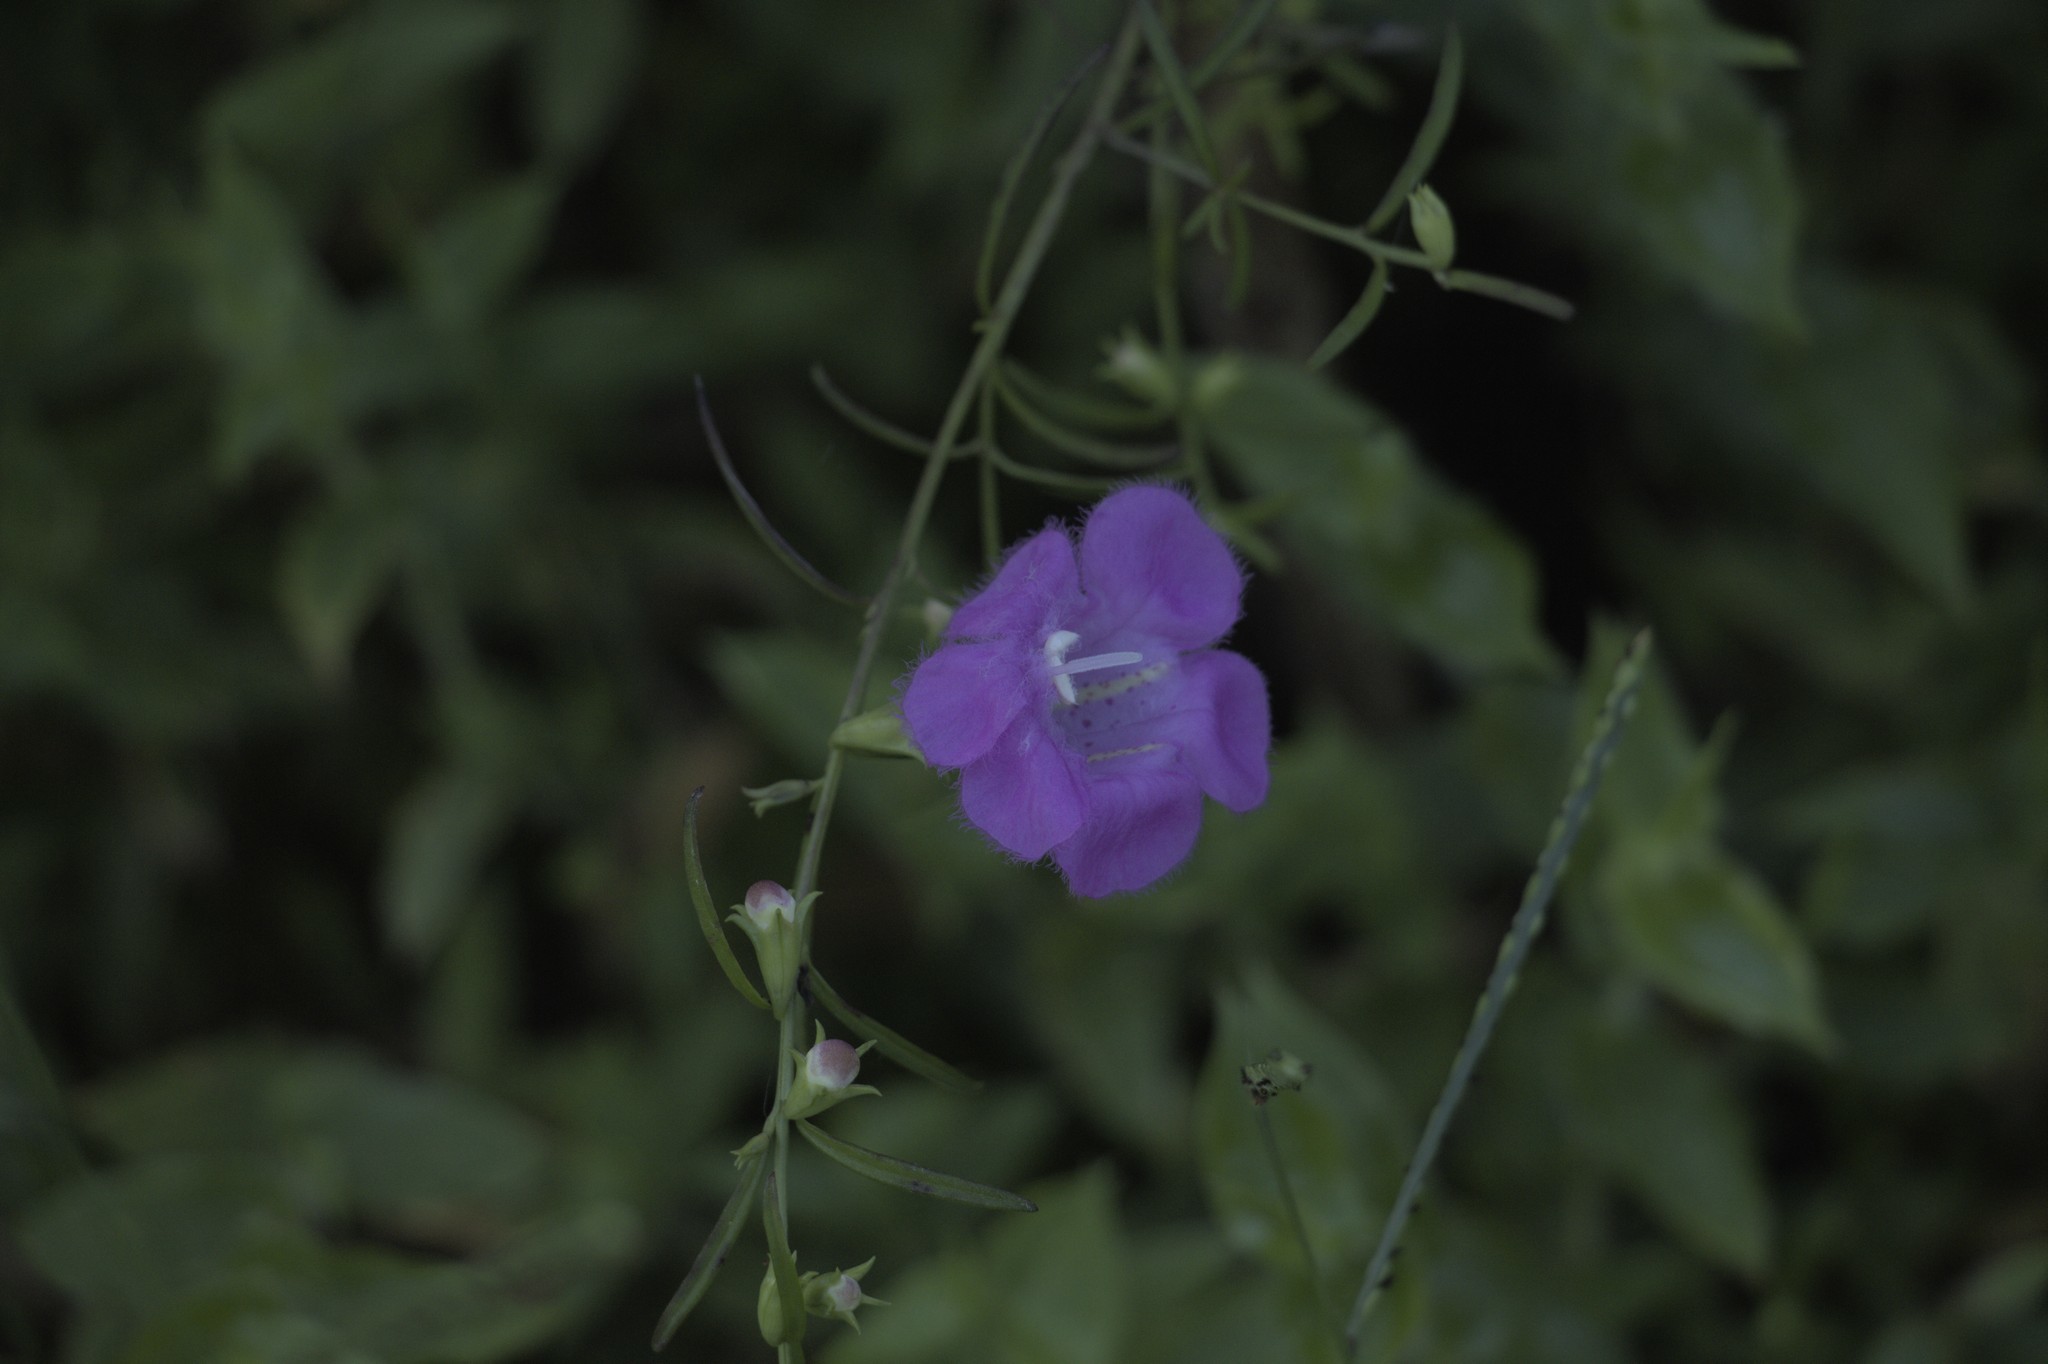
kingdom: Plantae
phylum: Tracheophyta
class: Magnoliopsida
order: Lamiales
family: Orobanchaceae
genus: Agalinis
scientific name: Agalinis purpurea
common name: Purple false foxglove
